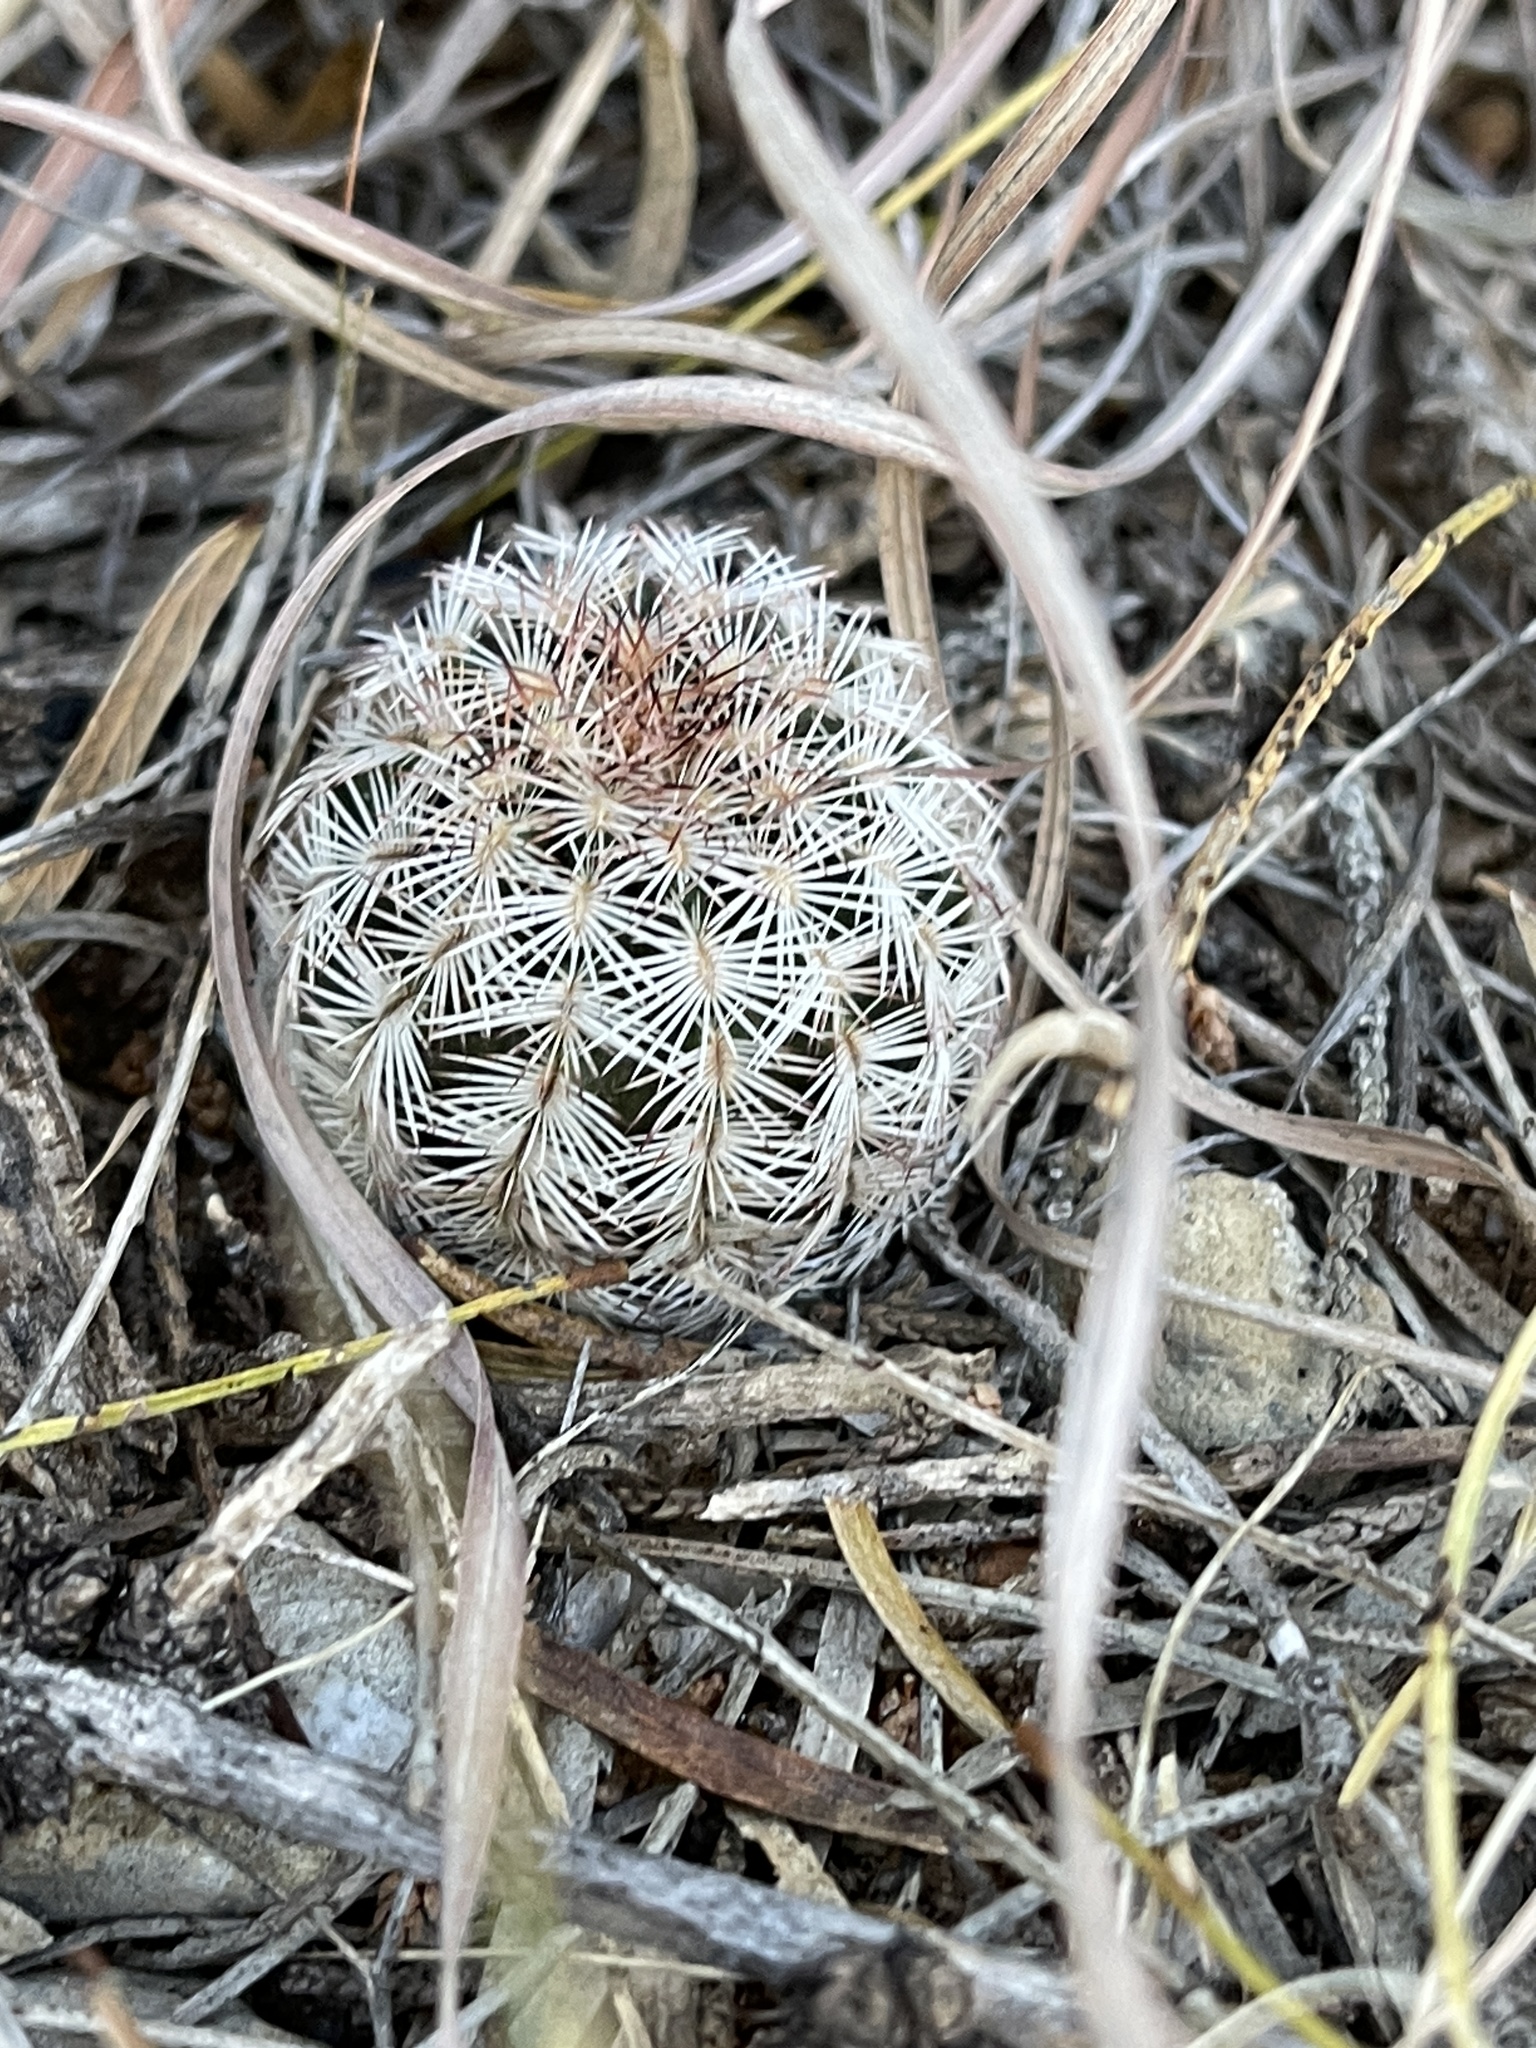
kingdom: Plantae
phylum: Tracheophyta
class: Magnoliopsida
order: Caryophyllales
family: Cactaceae
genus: Echinocereus
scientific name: Echinocereus reichenbachii
